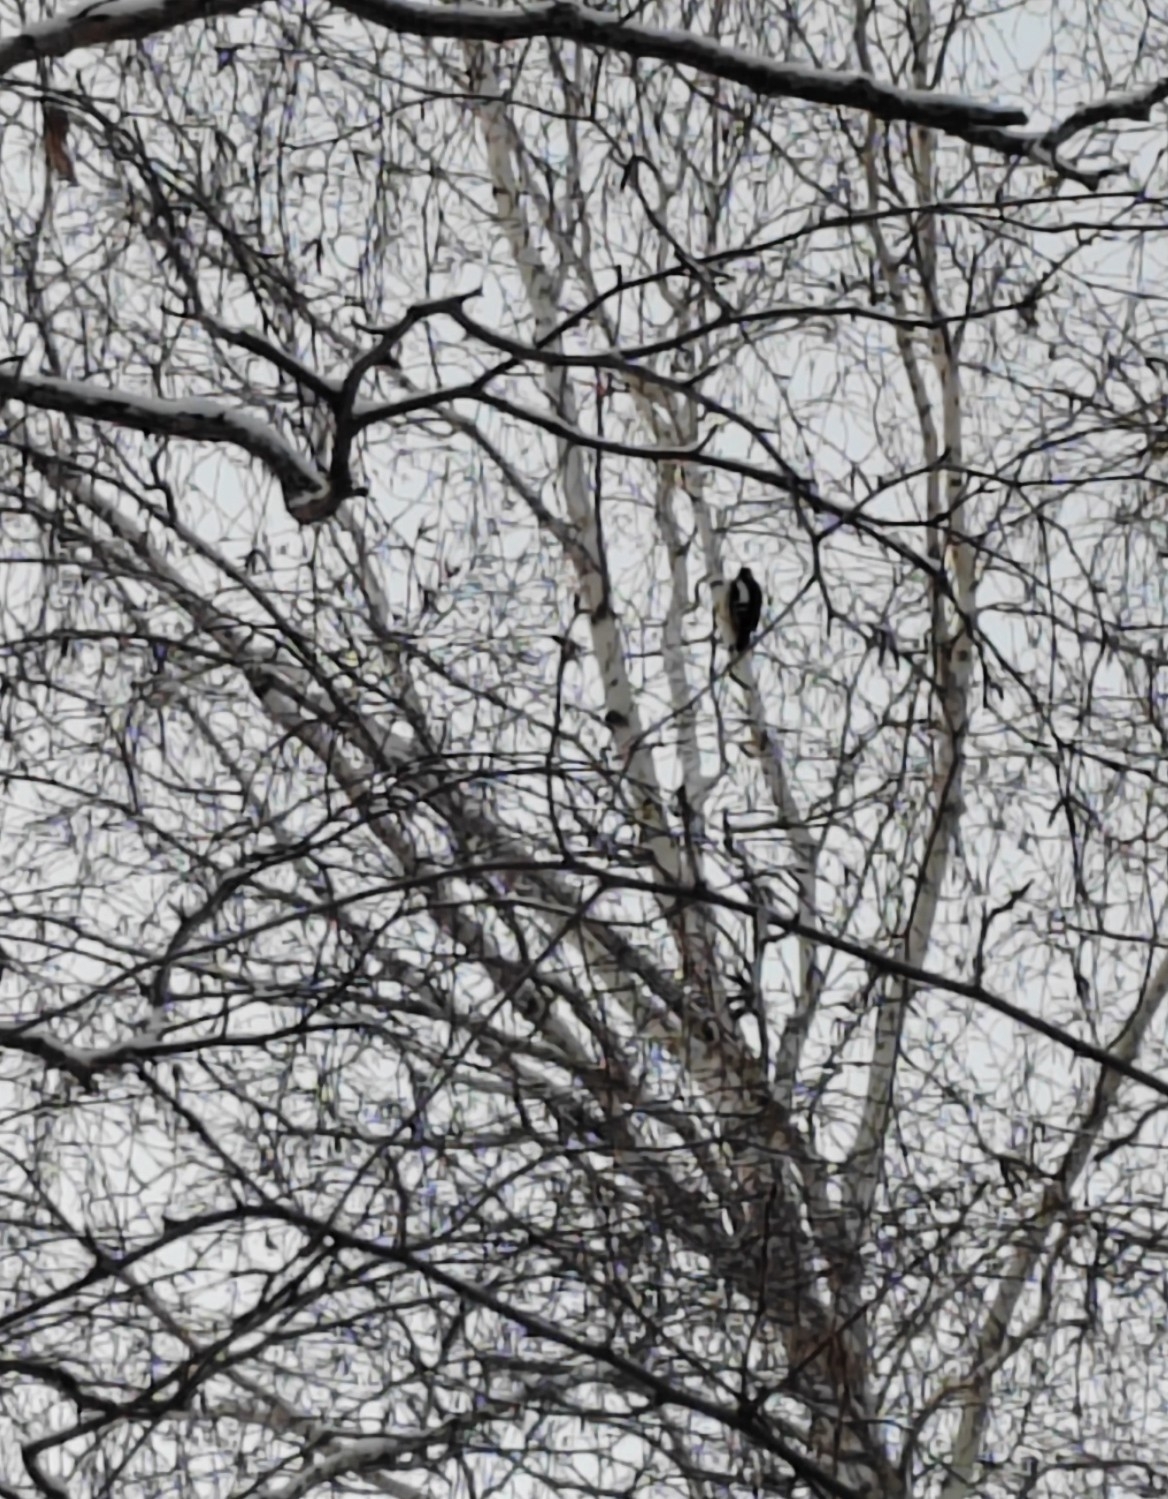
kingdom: Animalia
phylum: Chordata
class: Aves
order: Piciformes
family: Picidae
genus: Dendrocopos
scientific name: Dendrocopos major
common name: Great spotted woodpecker
